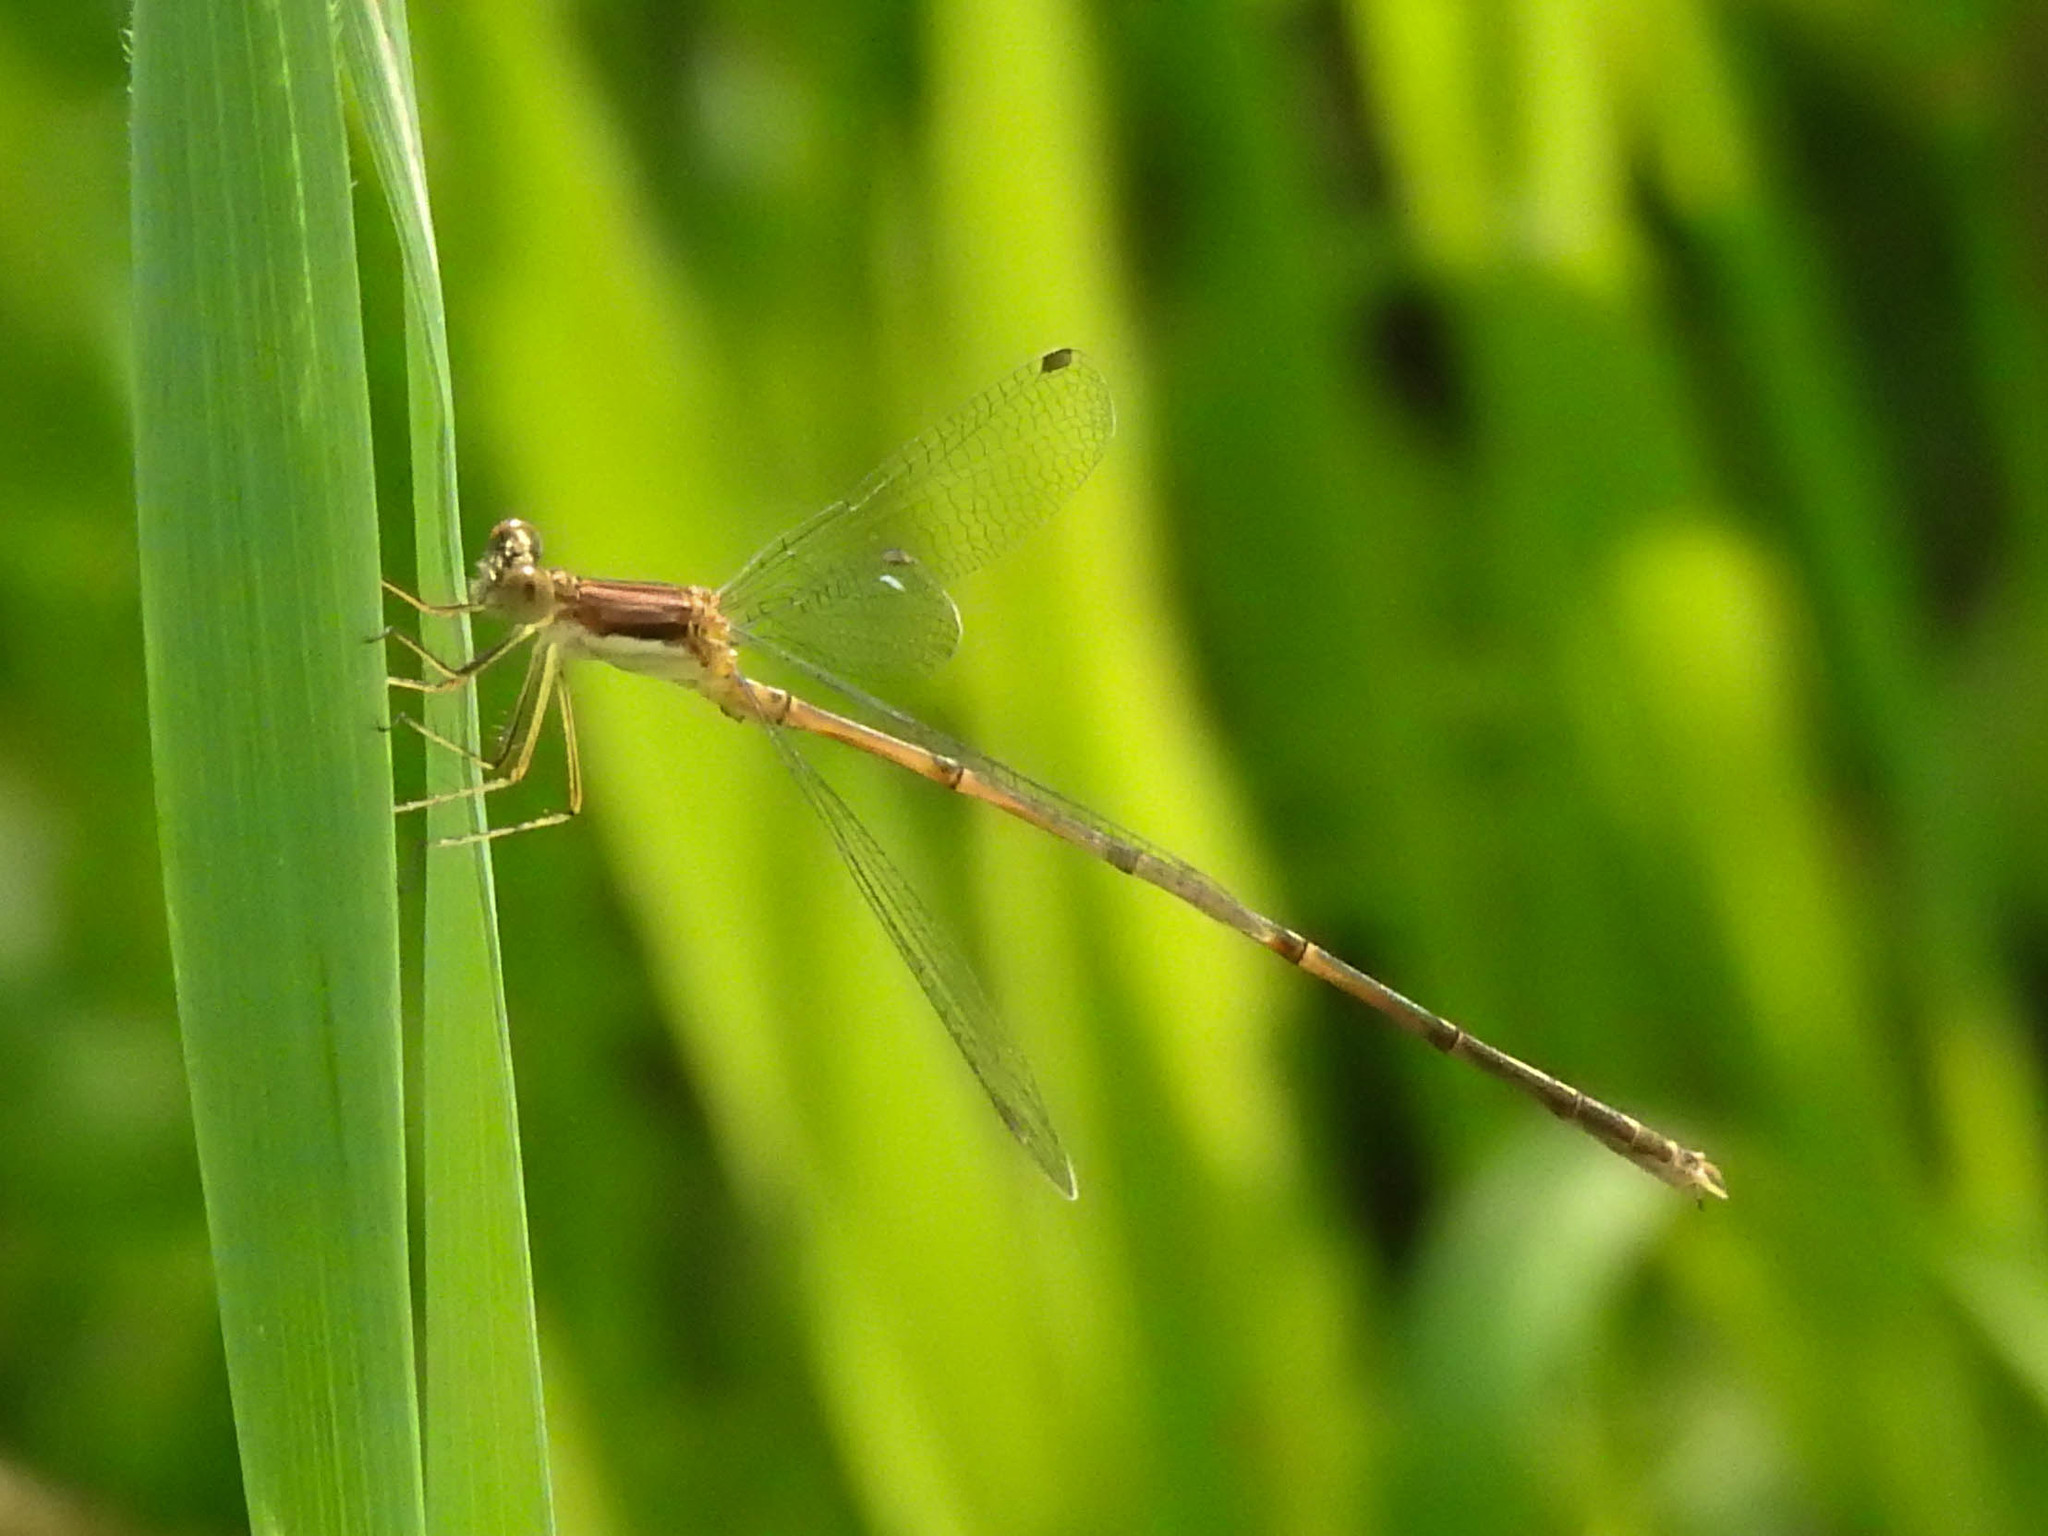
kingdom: Animalia
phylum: Arthropoda
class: Insecta
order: Odonata
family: Lestidae
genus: Lestes
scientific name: Lestes rectangularis
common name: Slender spreadwing
